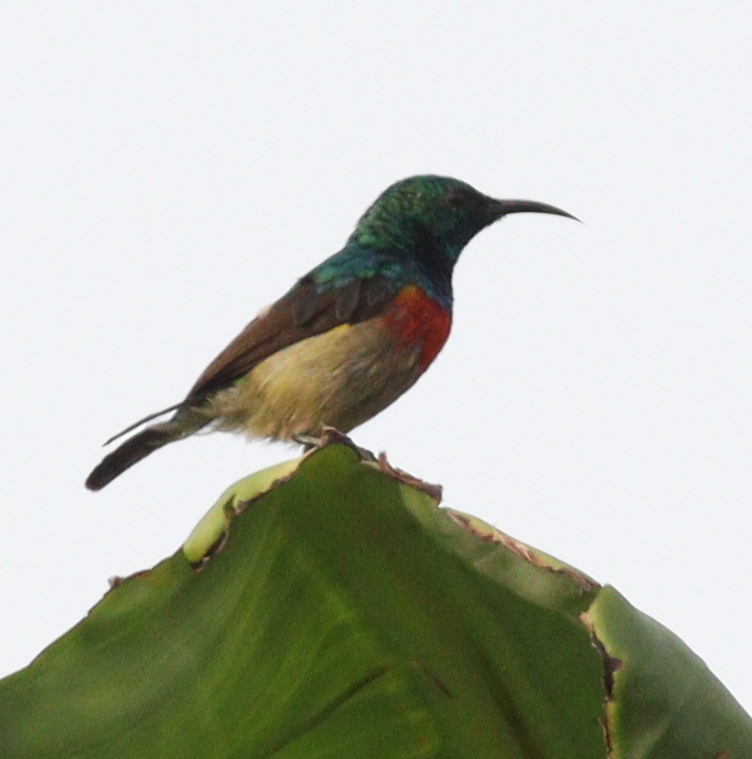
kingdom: Animalia
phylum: Chordata
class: Aves
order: Passeriformes
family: Nectariniidae
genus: Cinnyris
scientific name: Cinnyris chloropygius
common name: Olive-bellied sunbird
